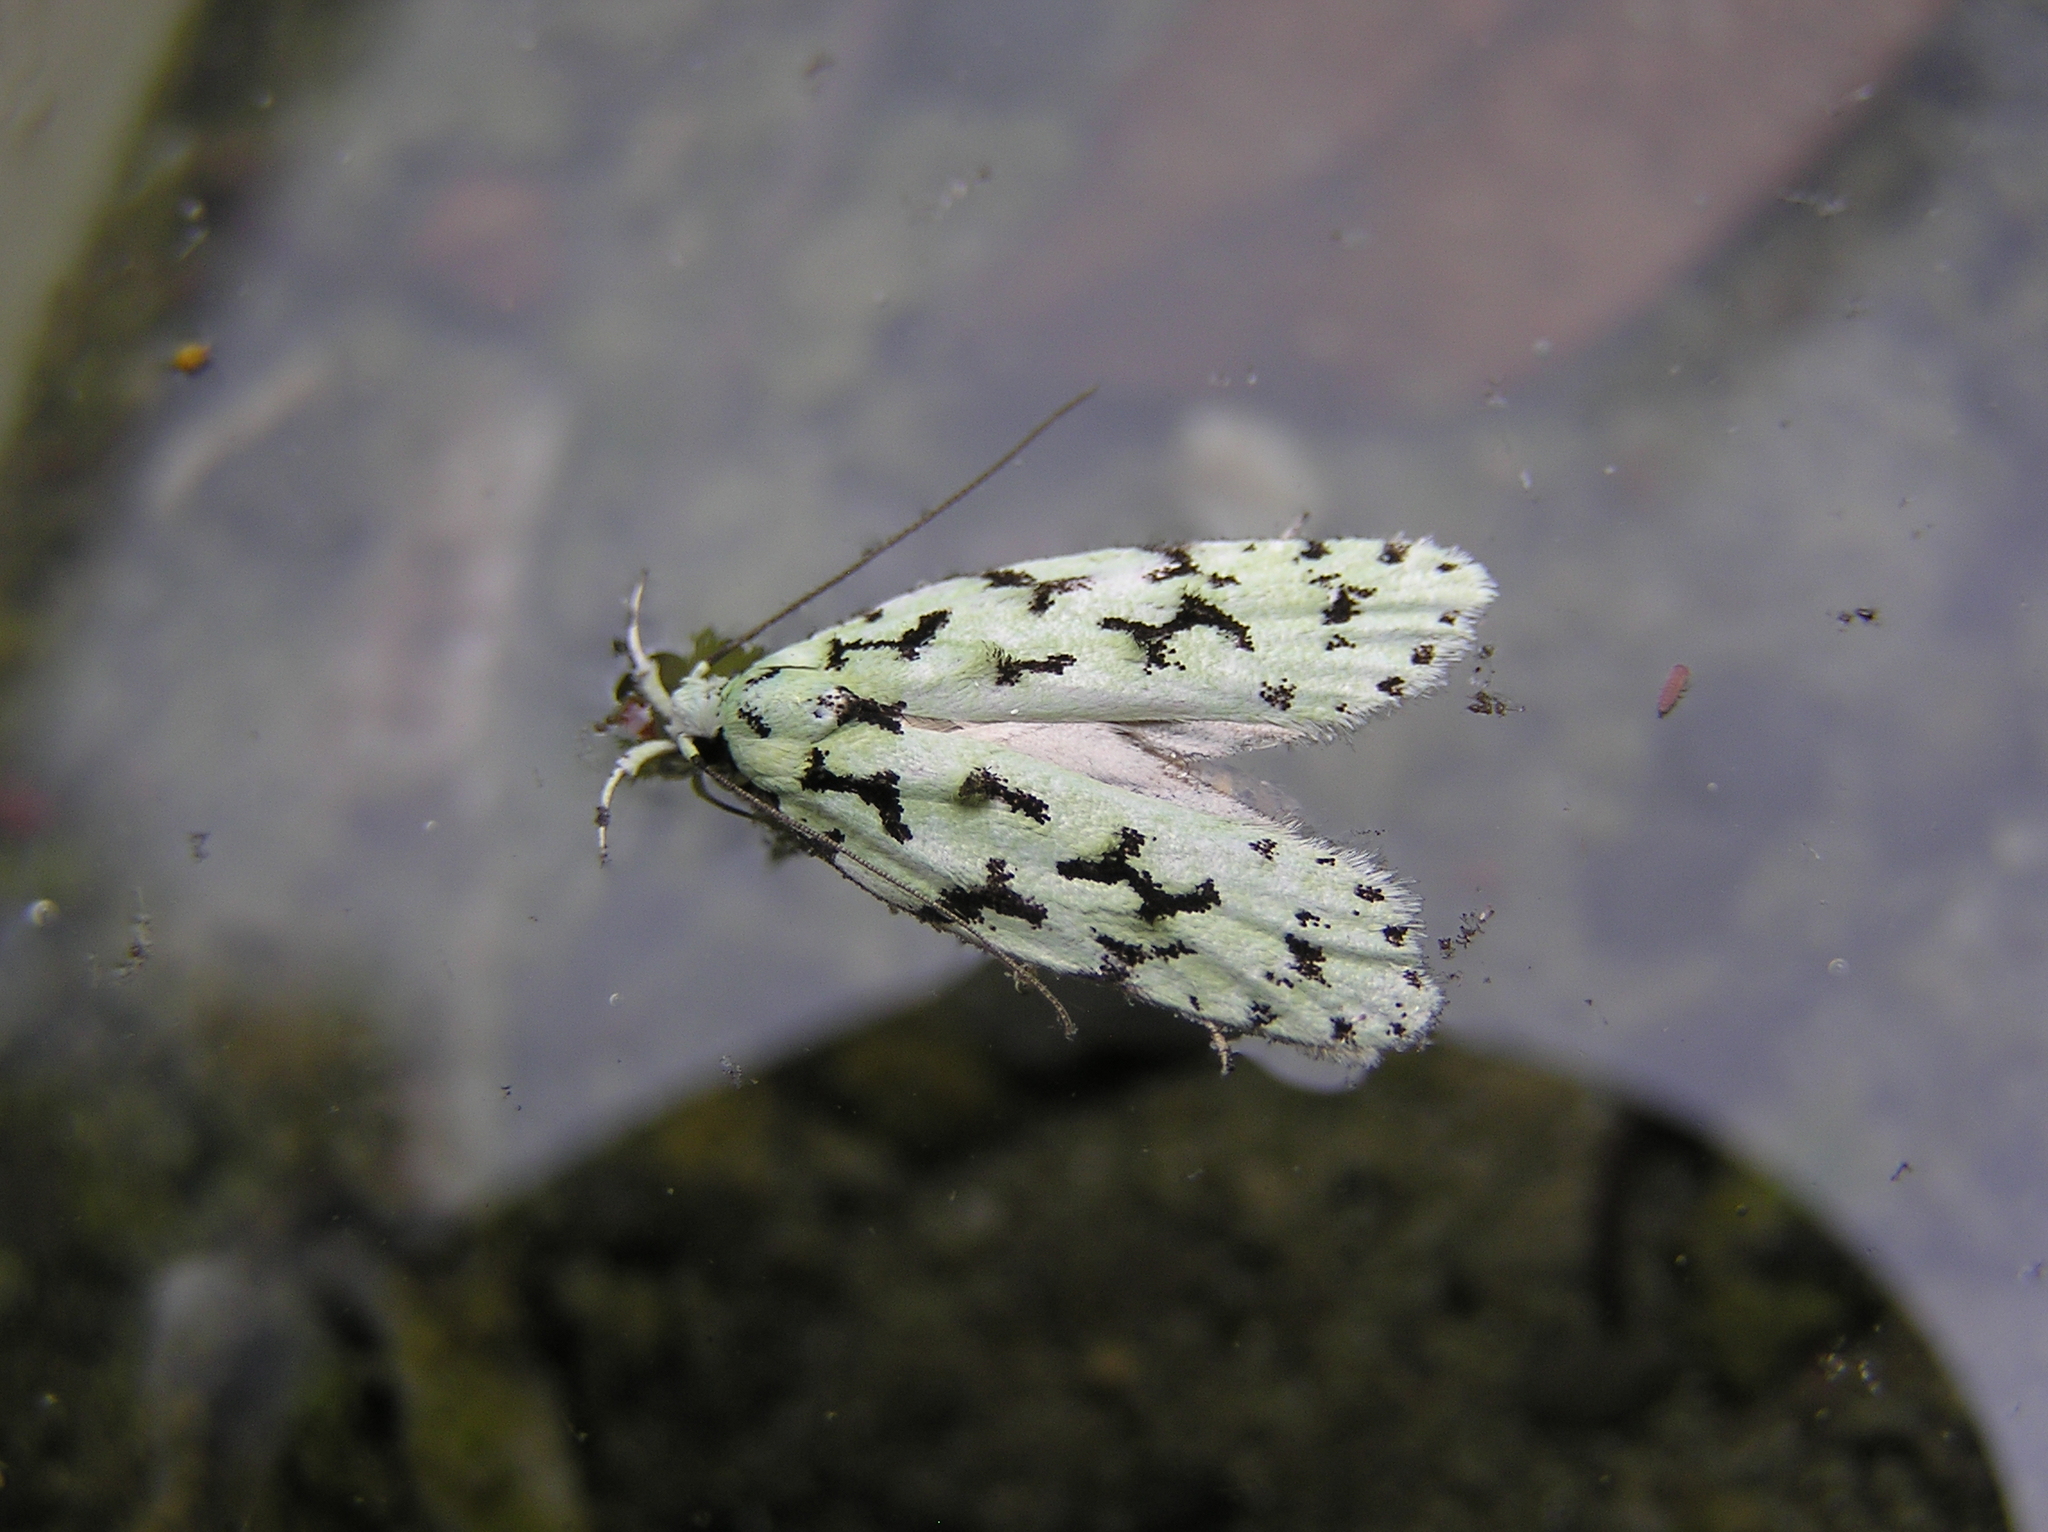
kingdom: Animalia
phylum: Arthropoda
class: Insecta
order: Lepidoptera
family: Oecophoridae
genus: Izatha
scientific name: Izatha huttoni
